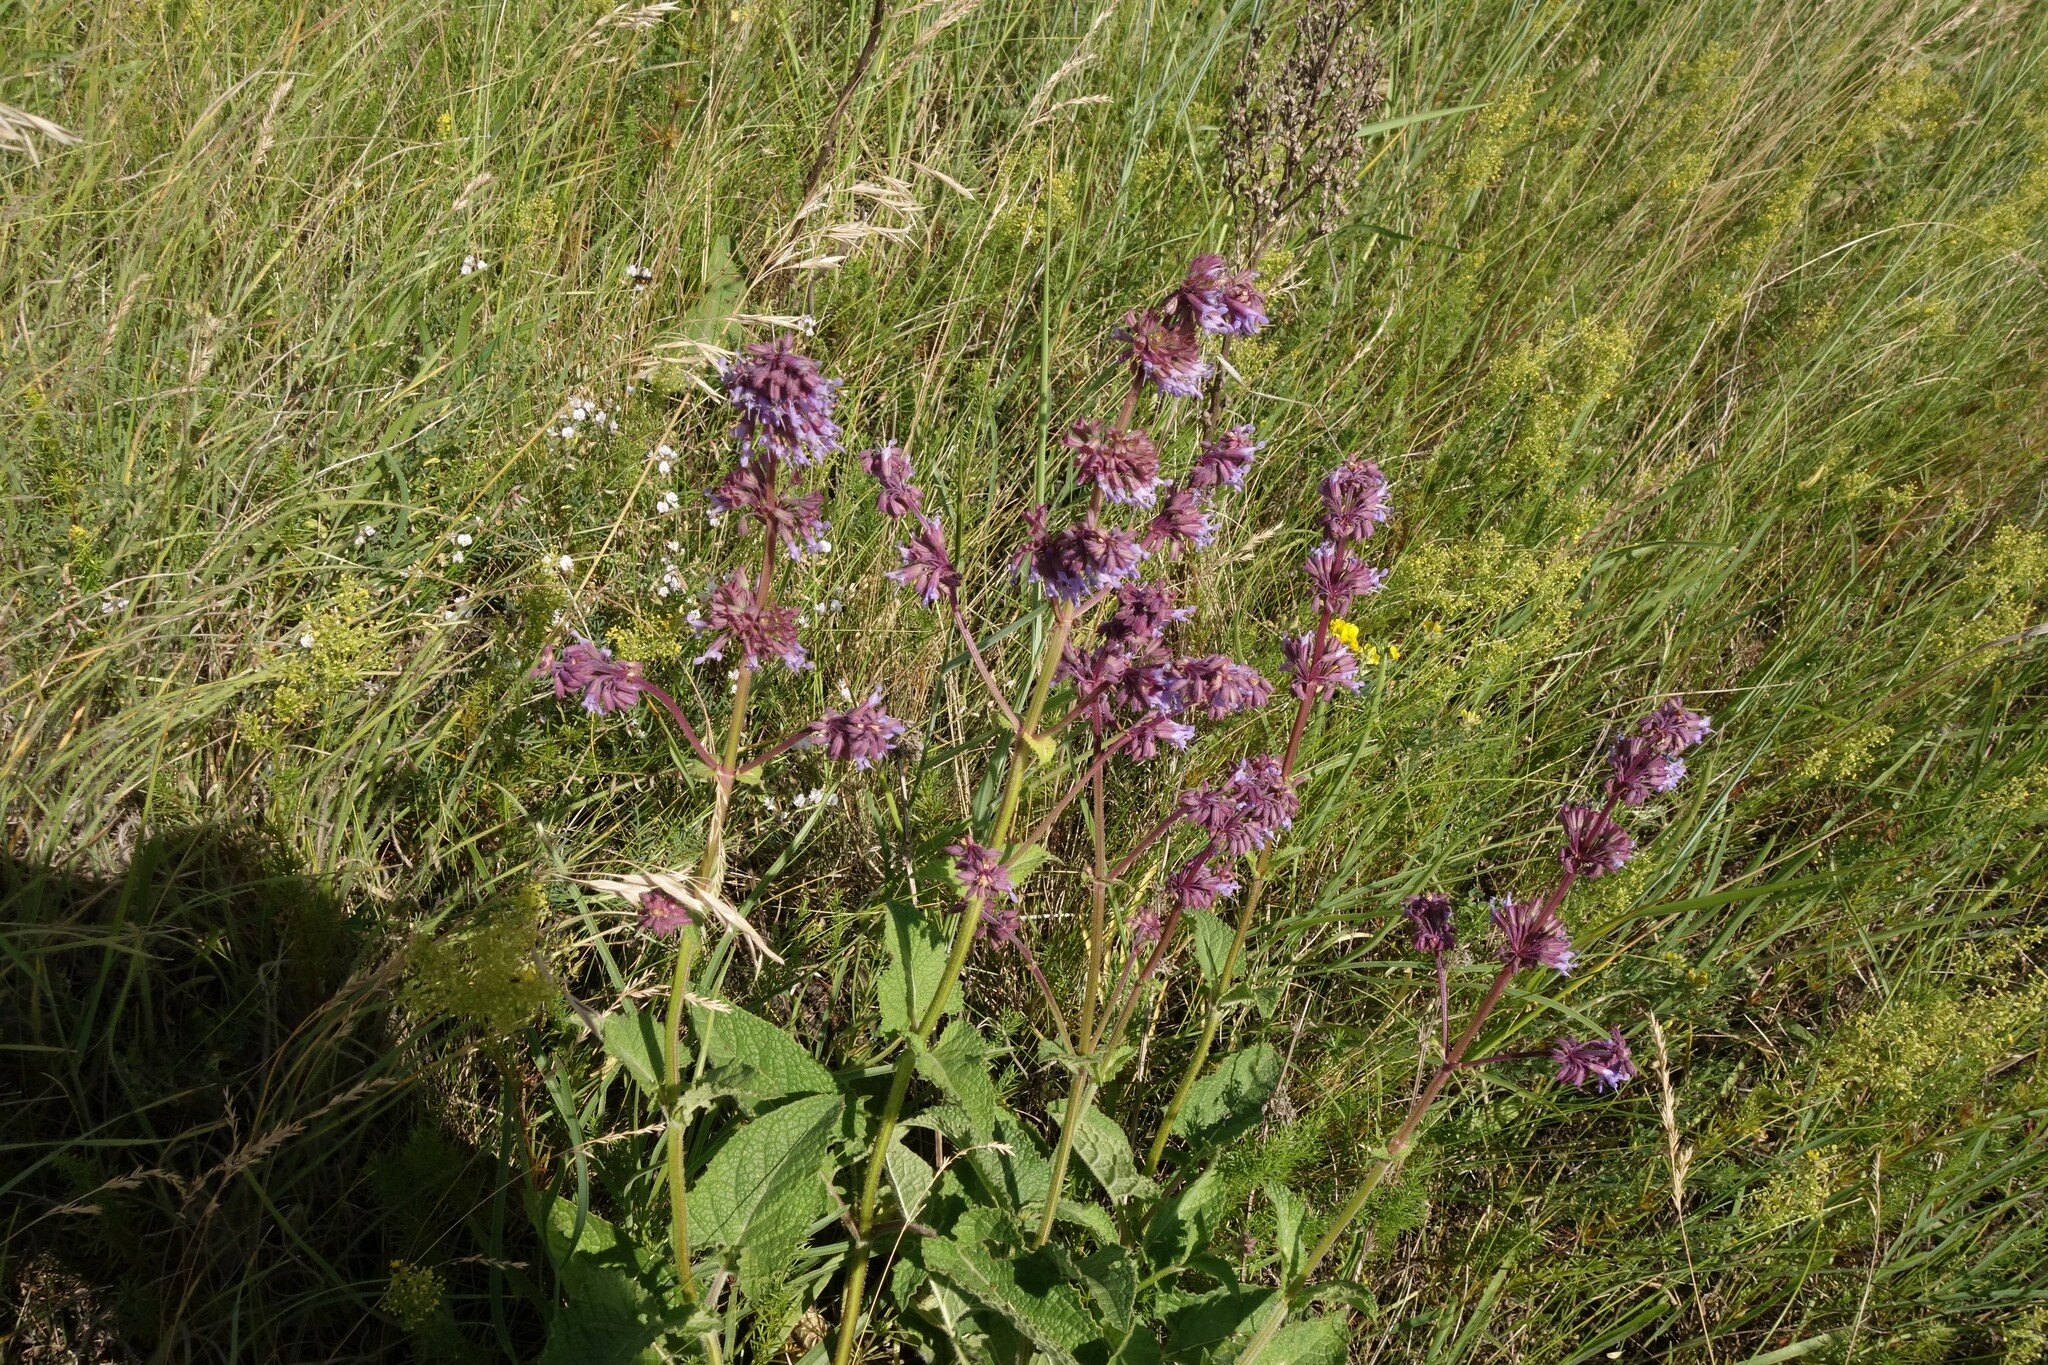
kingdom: Plantae
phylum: Tracheophyta
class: Magnoliopsida
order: Lamiales
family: Lamiaceae
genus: Salvia
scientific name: Salvia verticillata
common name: Whorled clary
